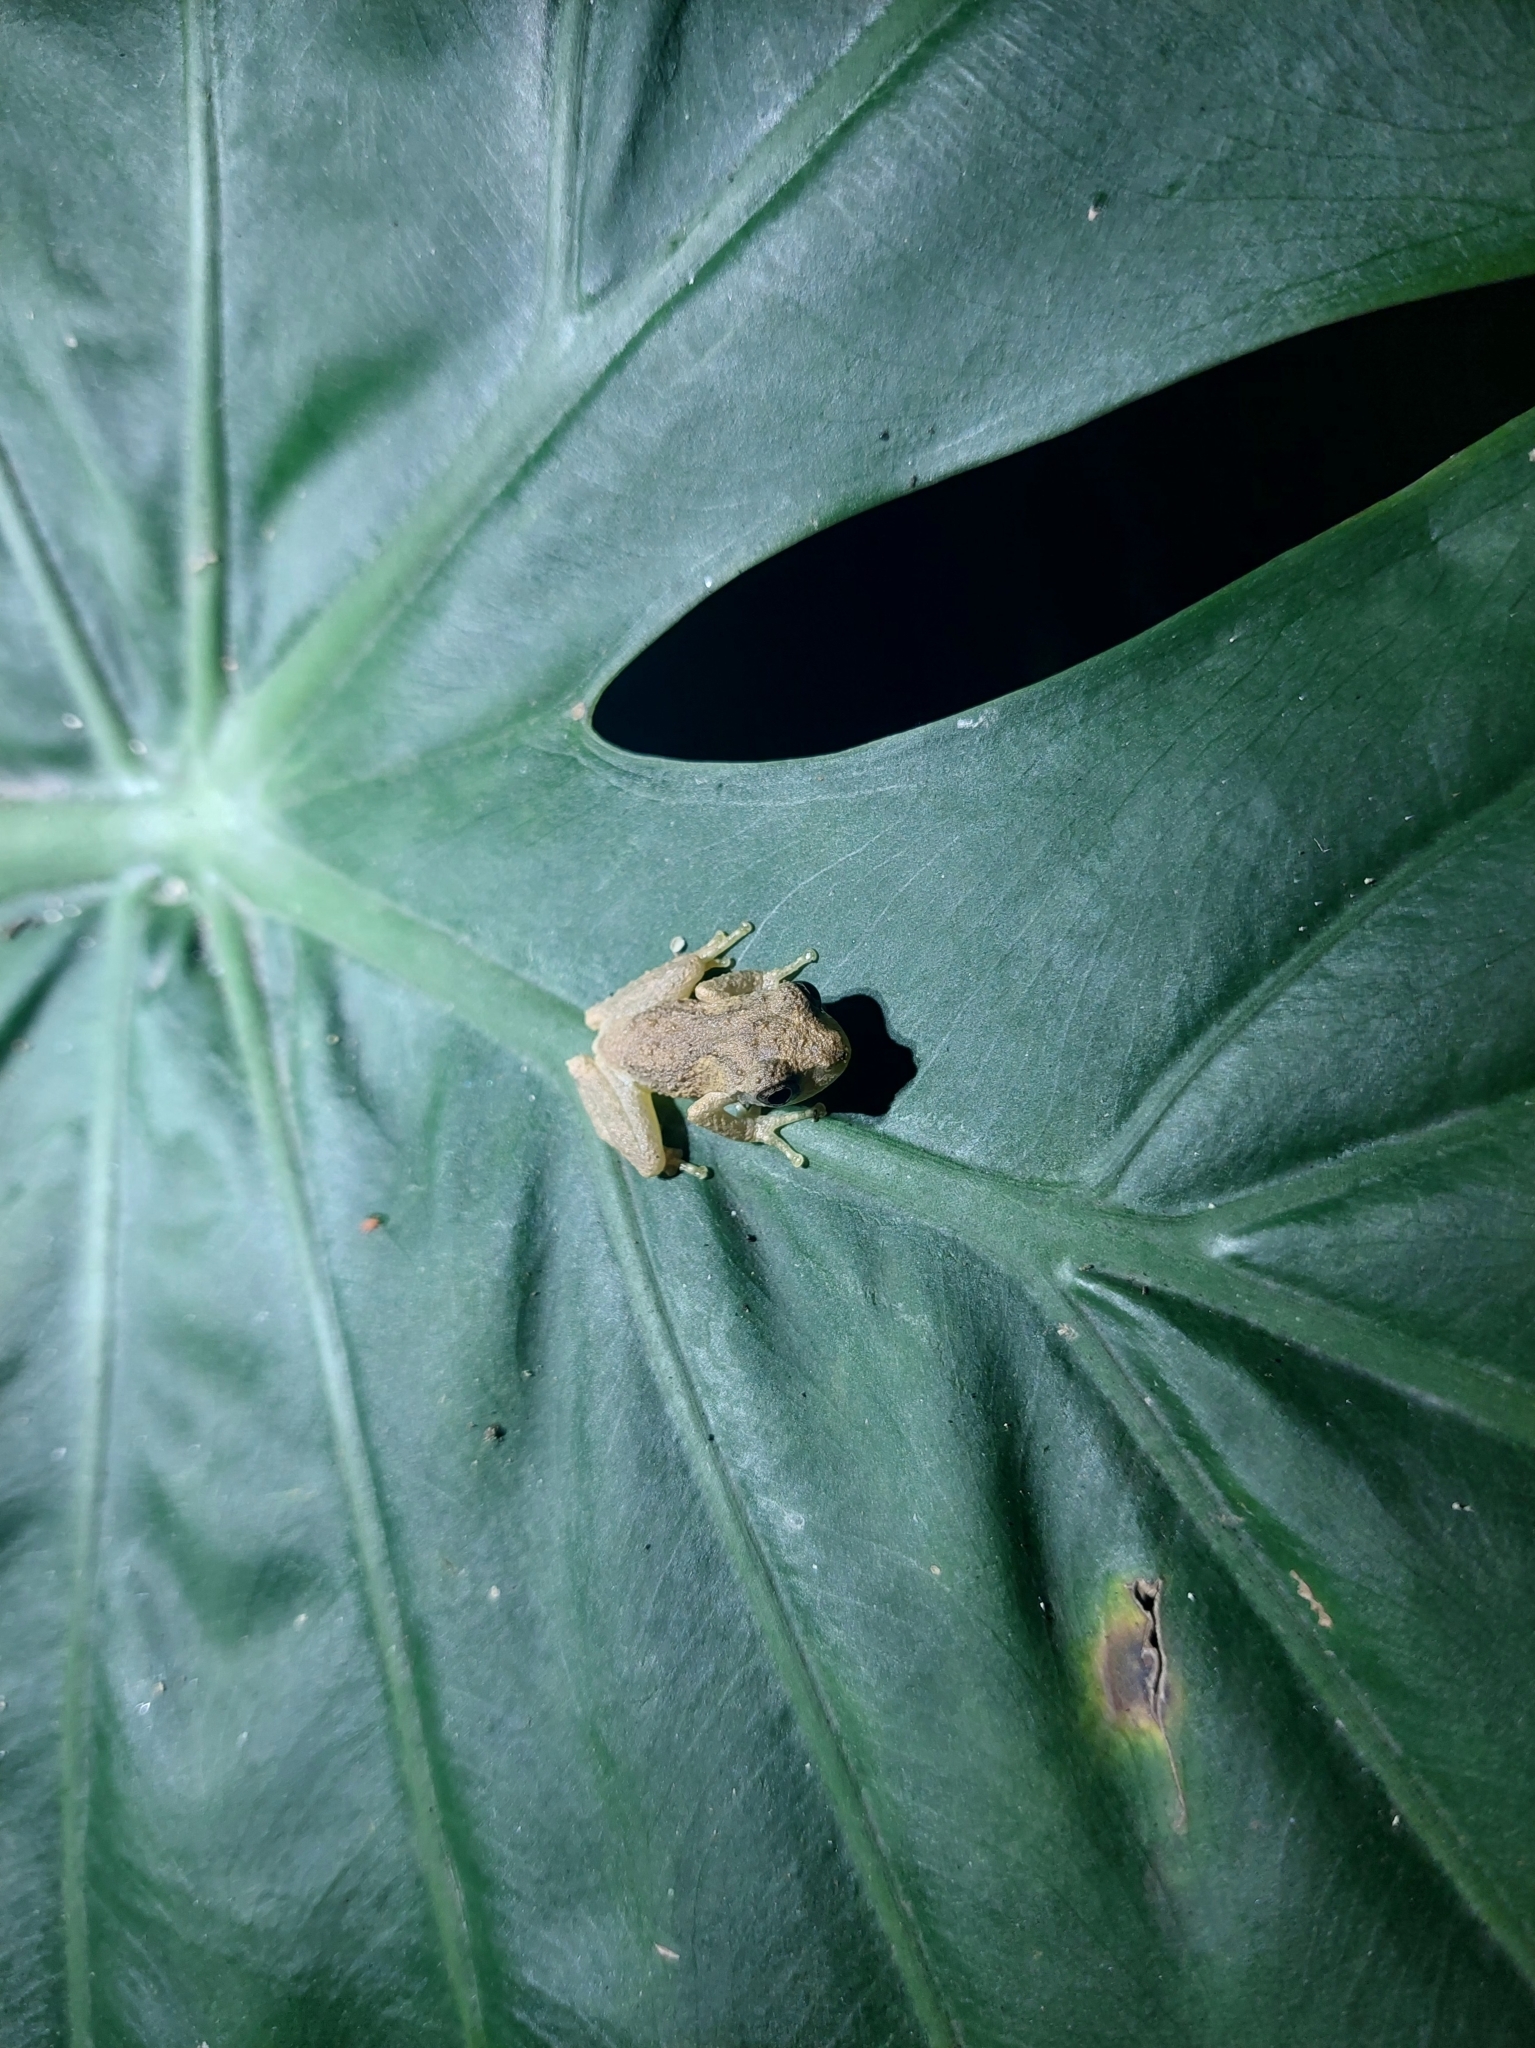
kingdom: Animalia
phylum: Chordata
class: Amphibia
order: Anura
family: Rhacophoridae
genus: Kurixalus
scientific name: Kurixalus idiootocus
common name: Temple treefrog
